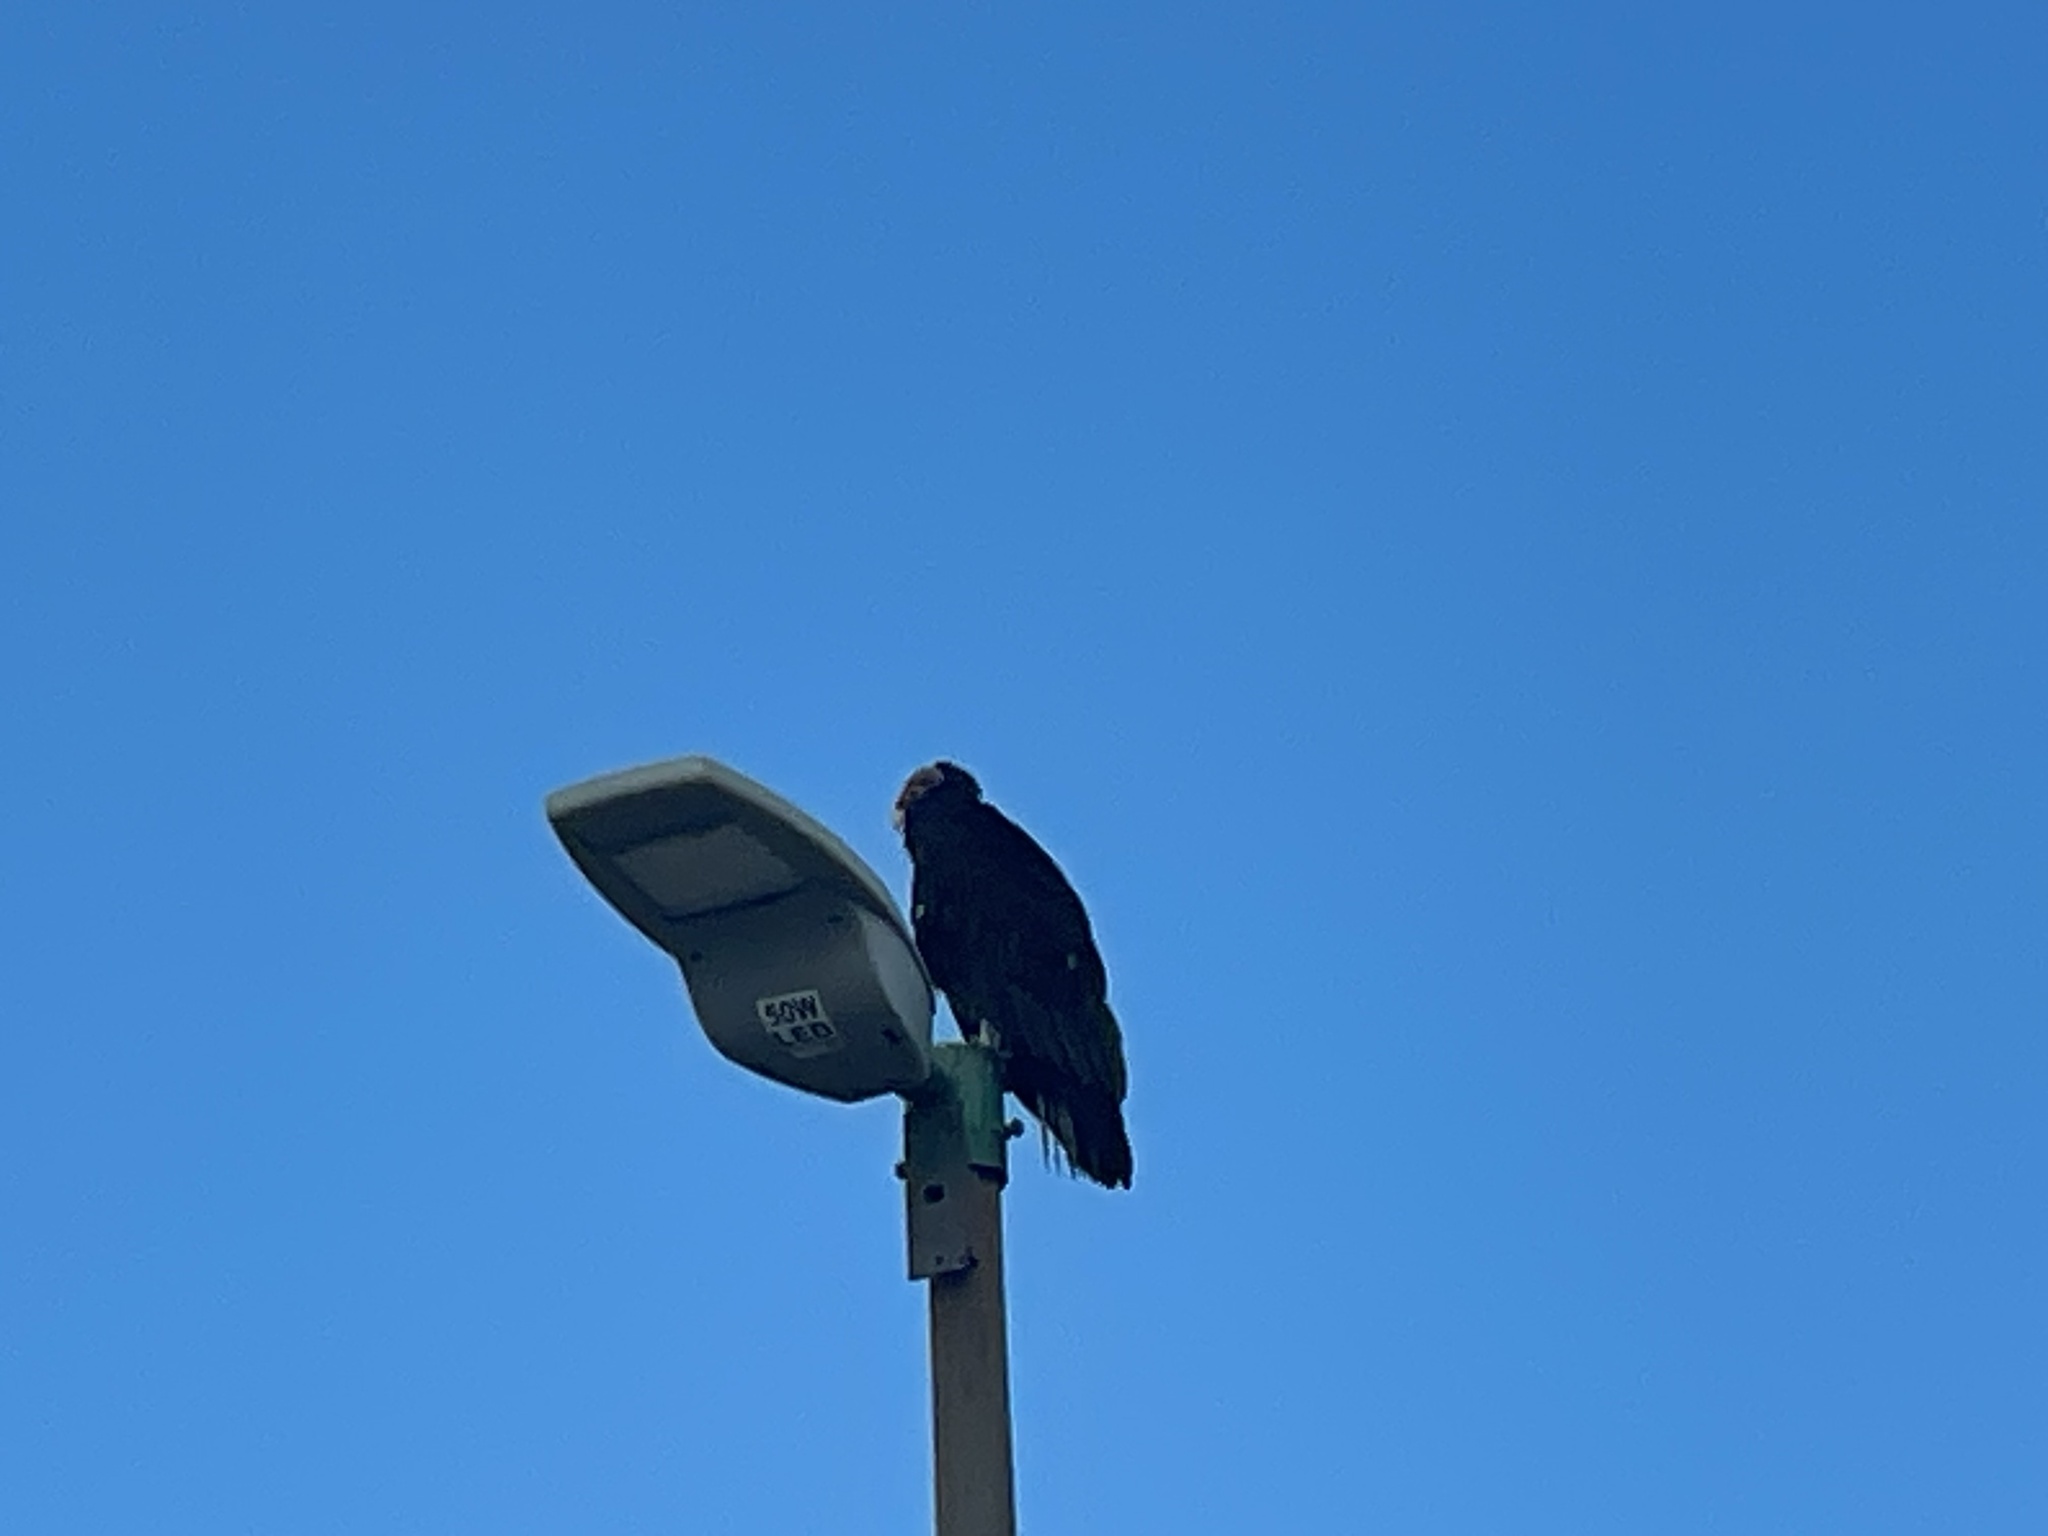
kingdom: Animalia
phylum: Chordata
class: Aves
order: Accipitriformes
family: Cathartidae
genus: Cathartes
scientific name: Cathartes aura
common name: Turkey vulture
